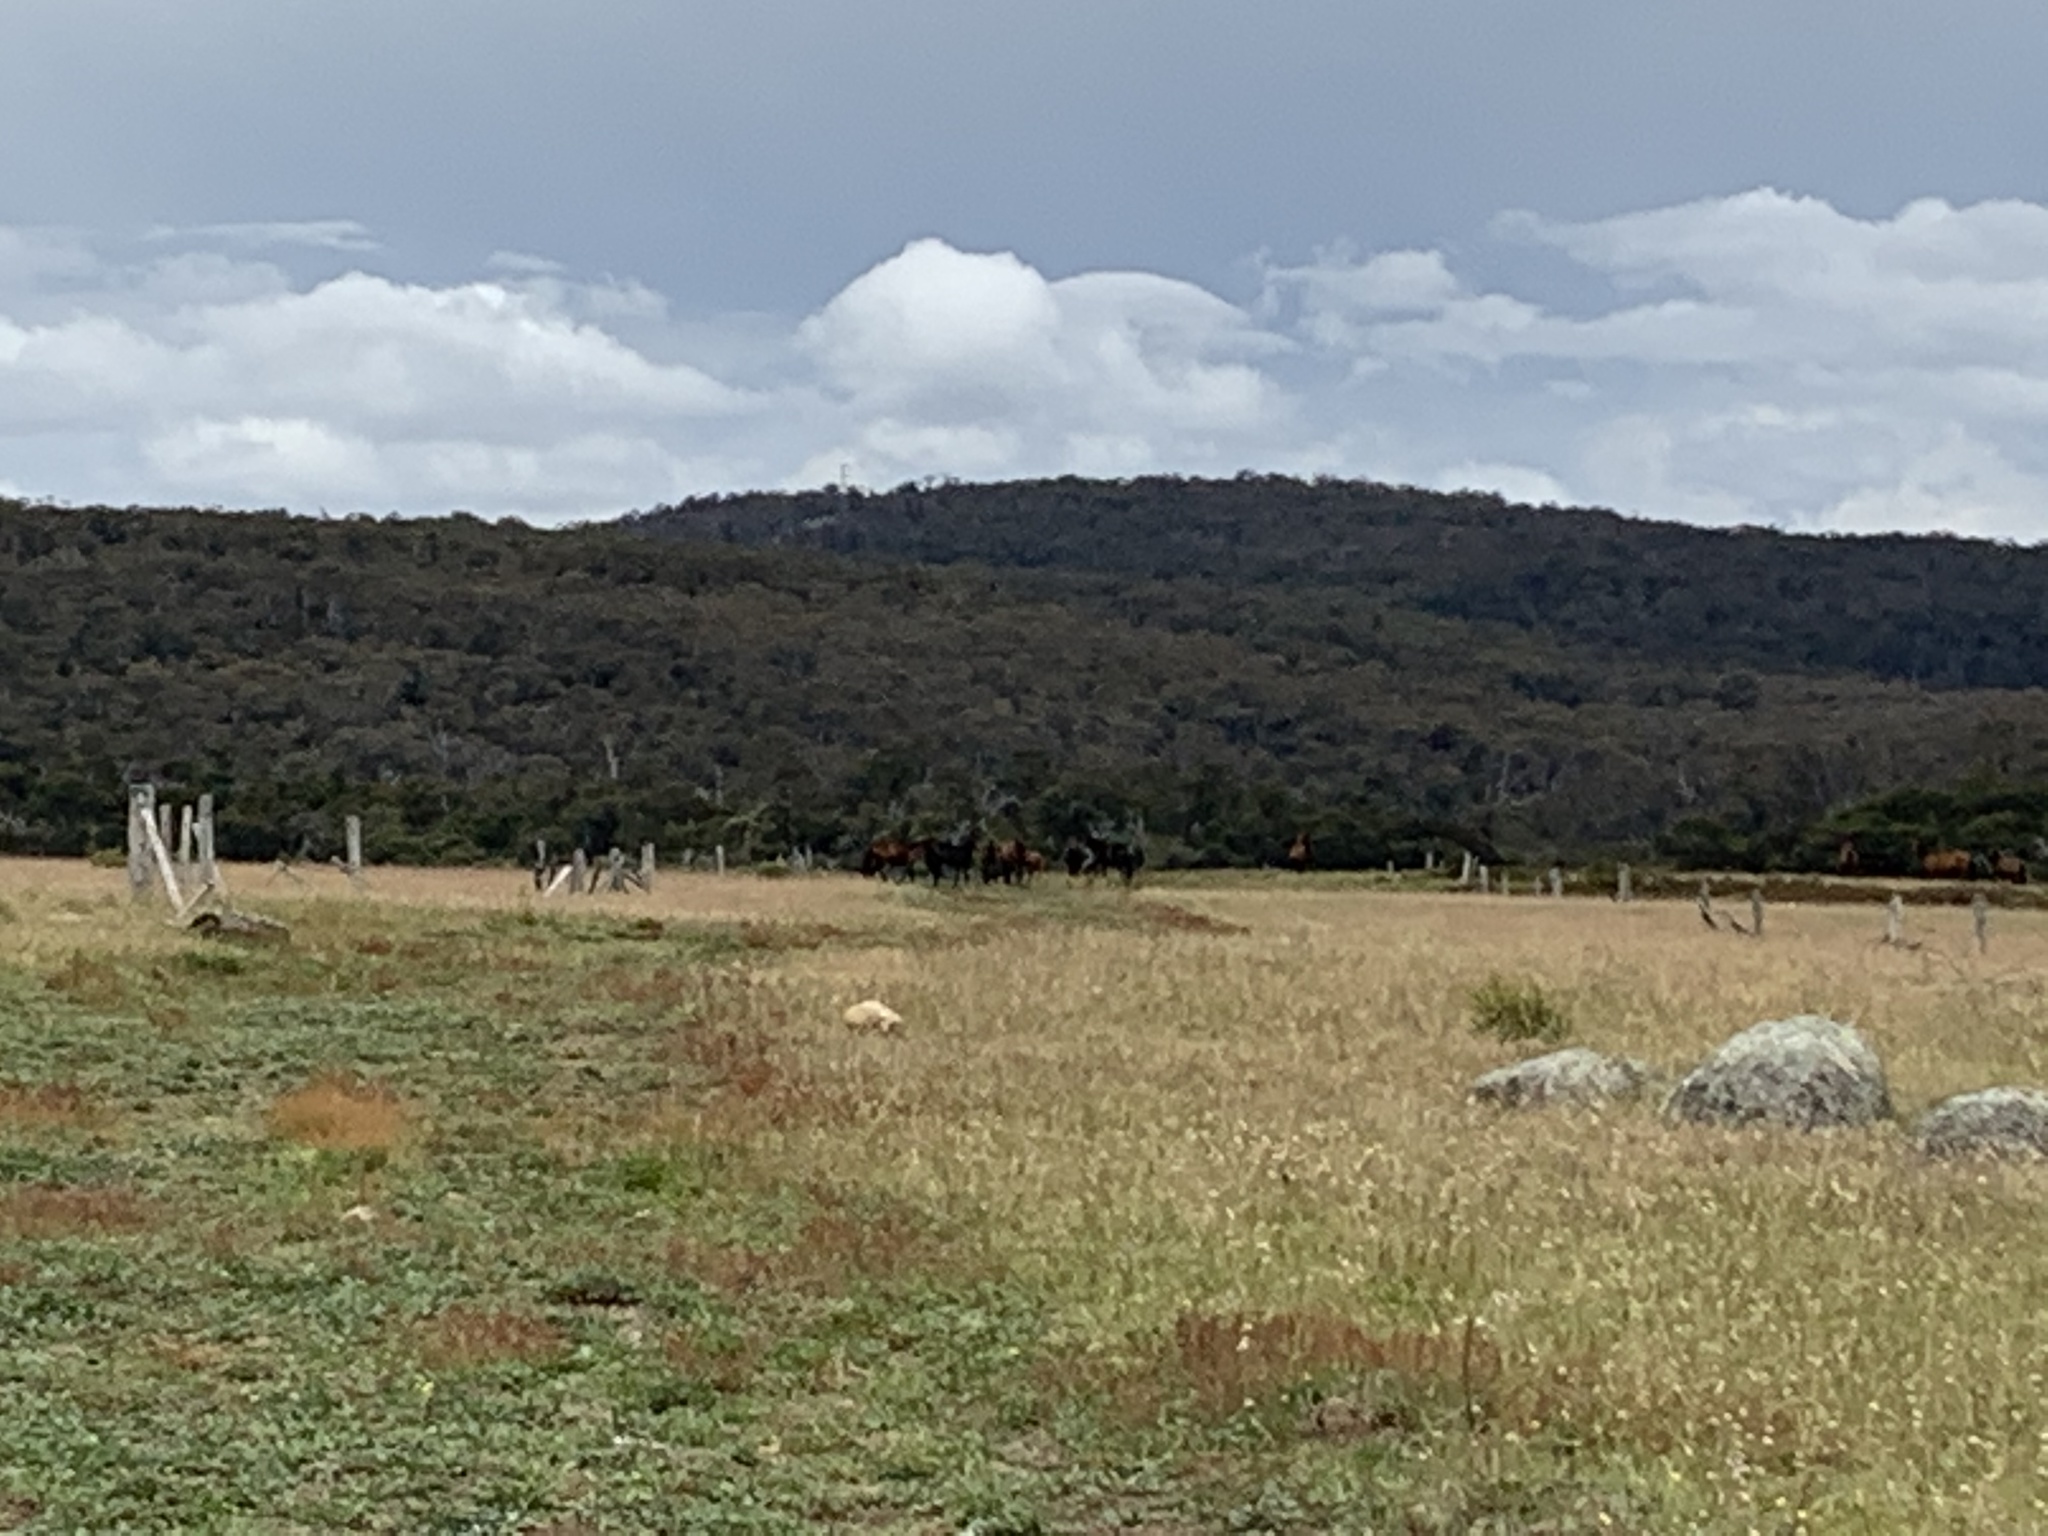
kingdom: Animalia
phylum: Chordata
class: Mammalia
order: Perissodactyla
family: Equidae
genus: Equus
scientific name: Equus caballus
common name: Horse
